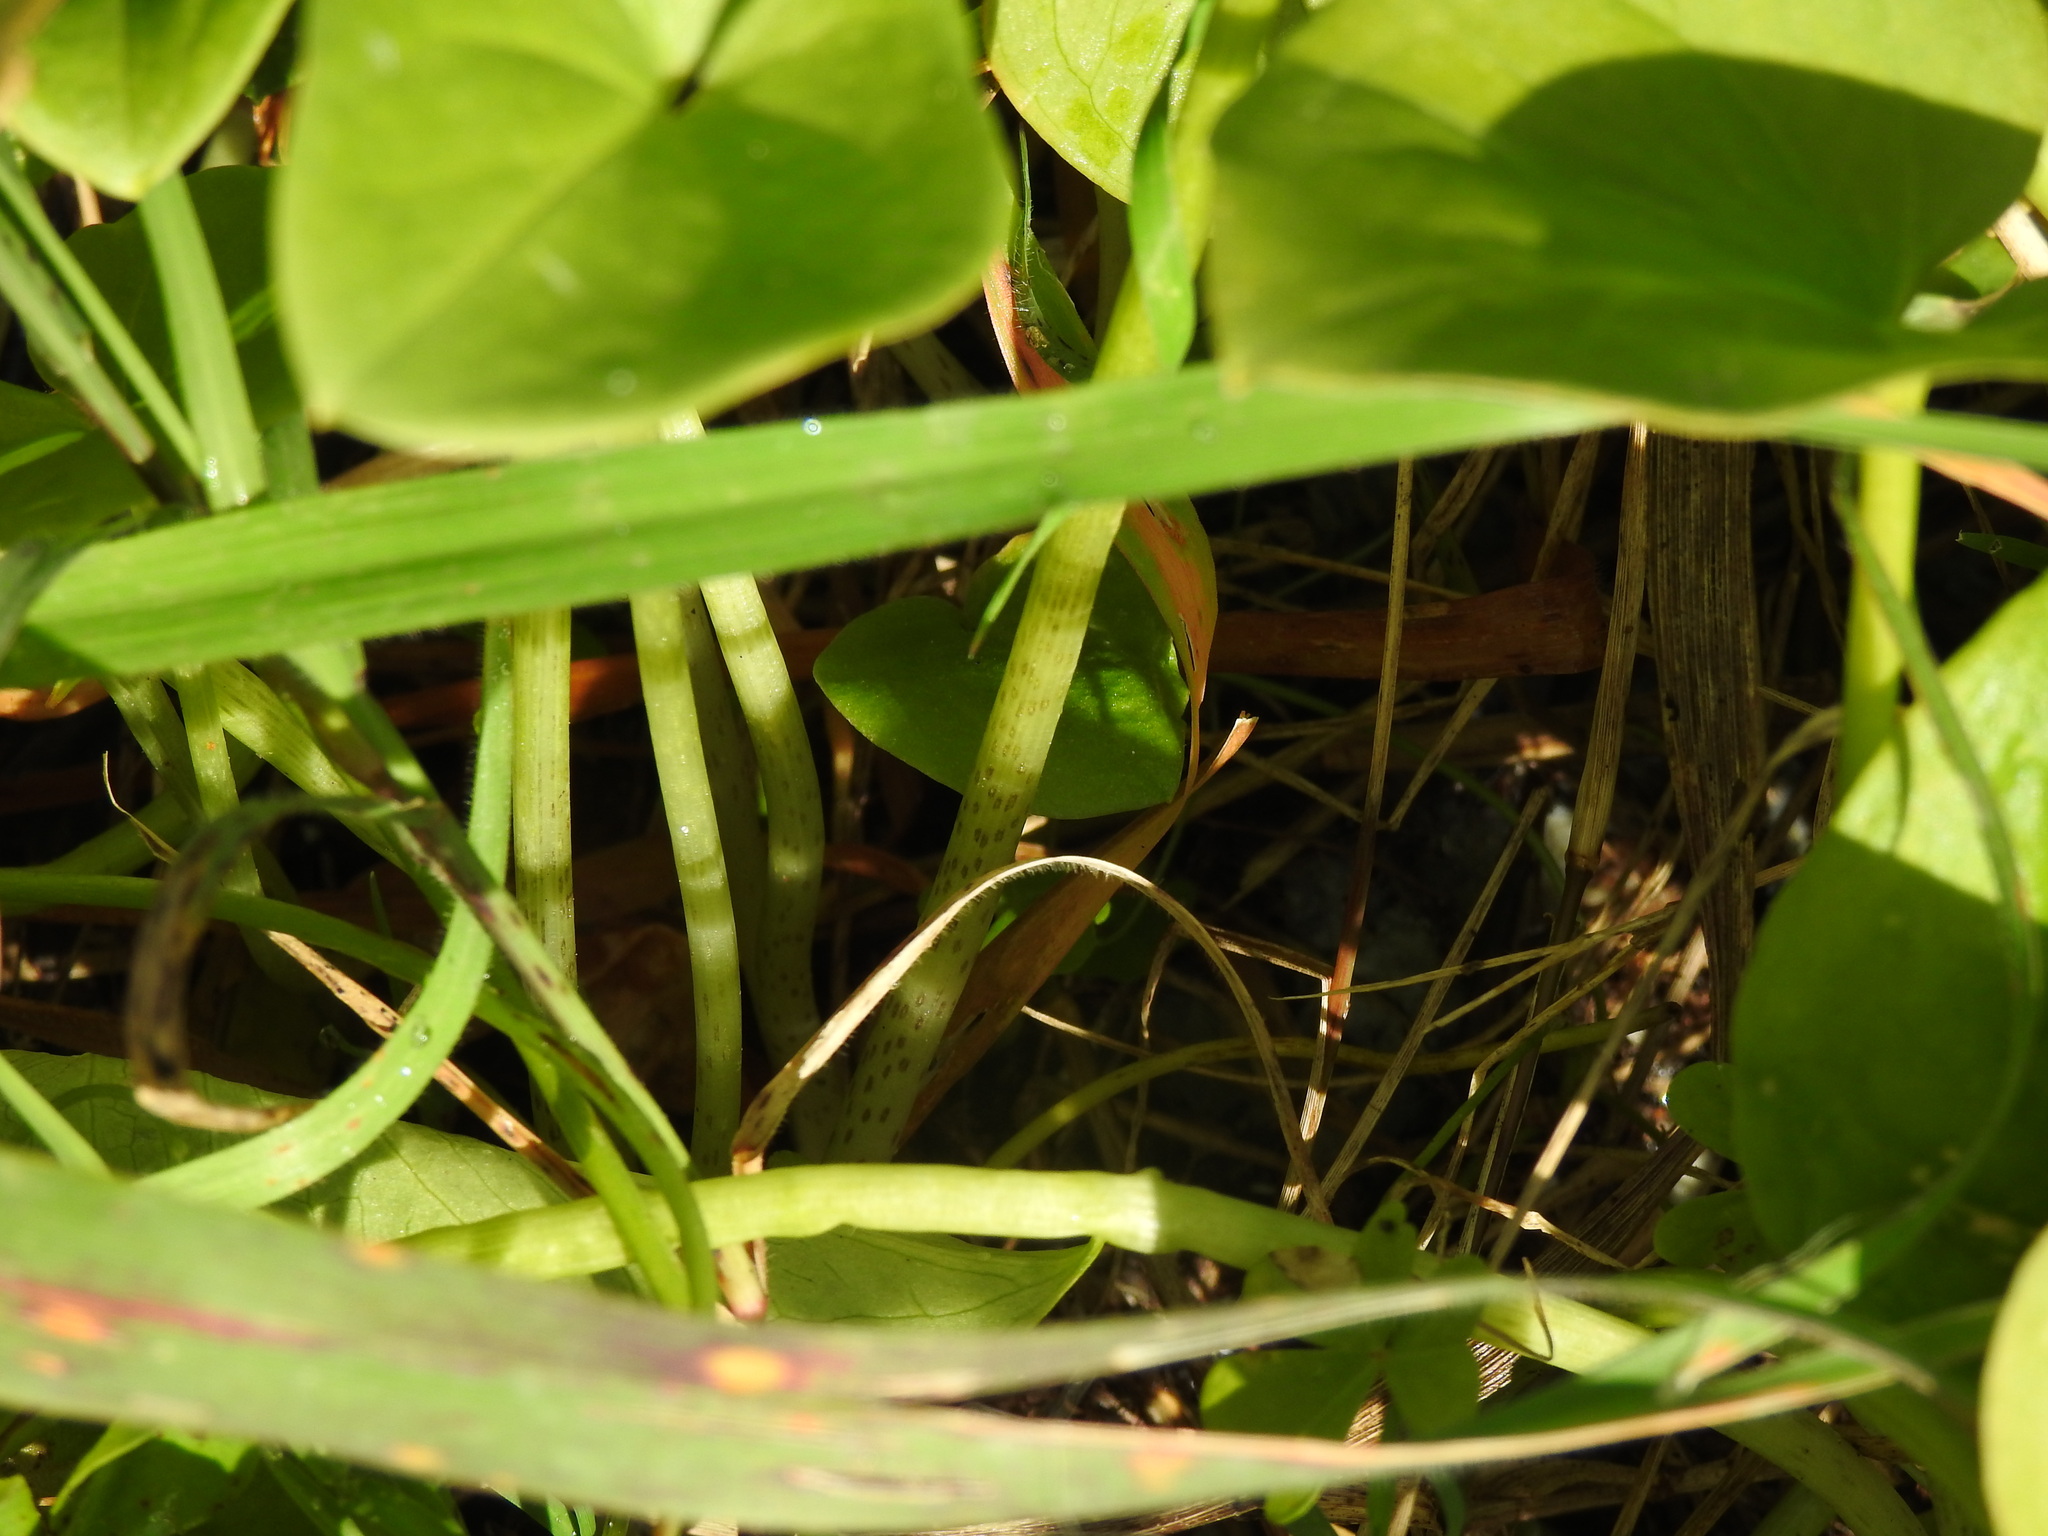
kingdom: Plantae
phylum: Tracheophyta
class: Liliopsida
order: Alismatales
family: Araceae
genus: Arisarum
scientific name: Arisarum simorrhinum
